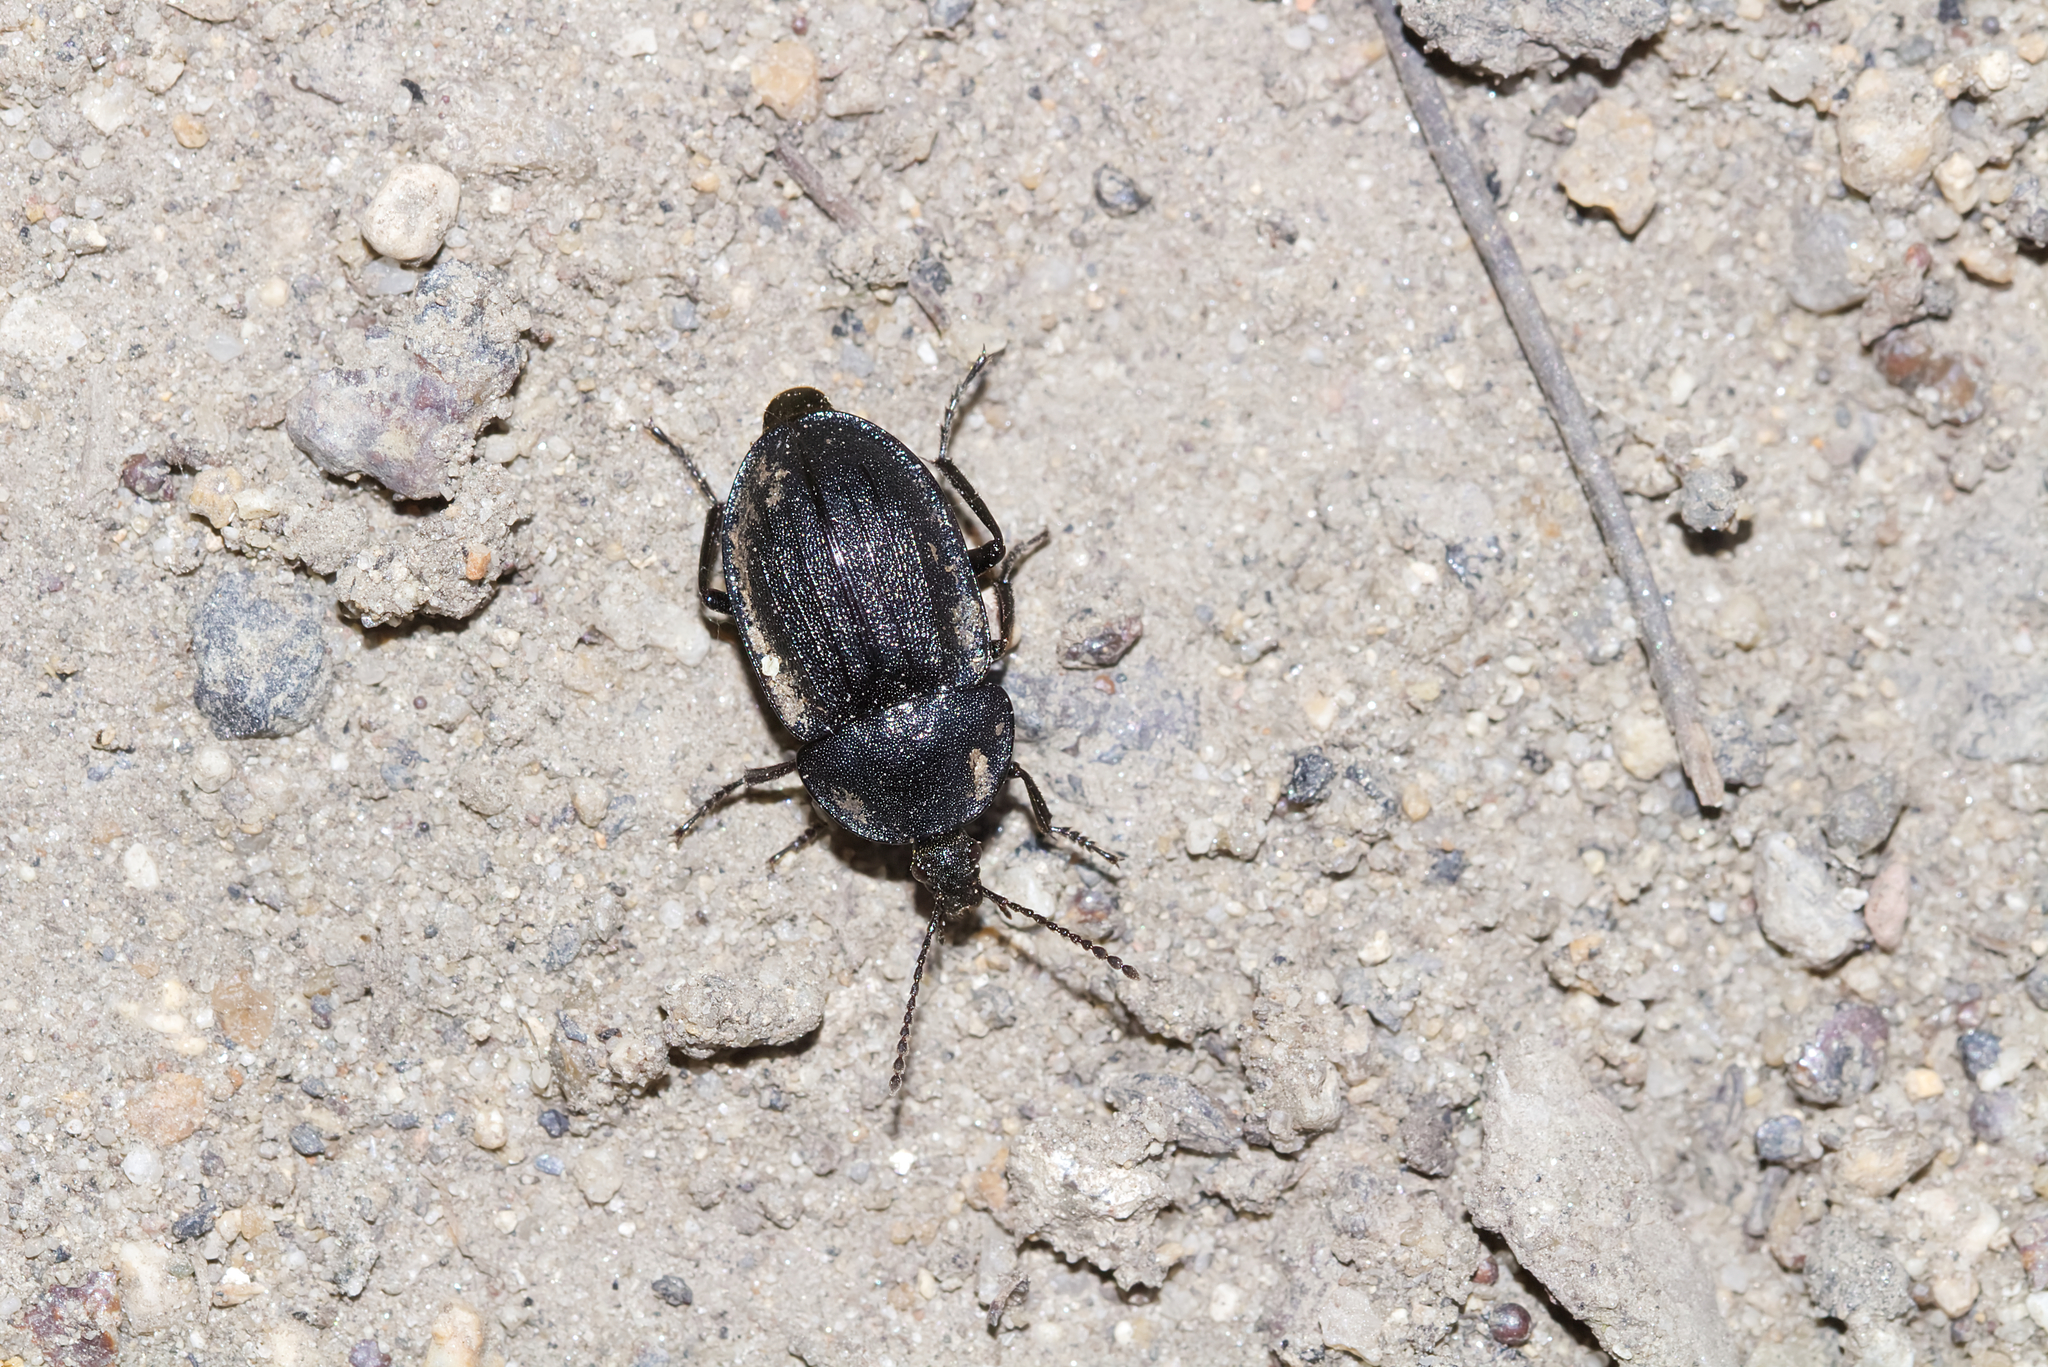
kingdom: Animalia
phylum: Arthropoda
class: Insecta
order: Coleoptera
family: Staphylinidae
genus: Silpha
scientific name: Silpha atrata
